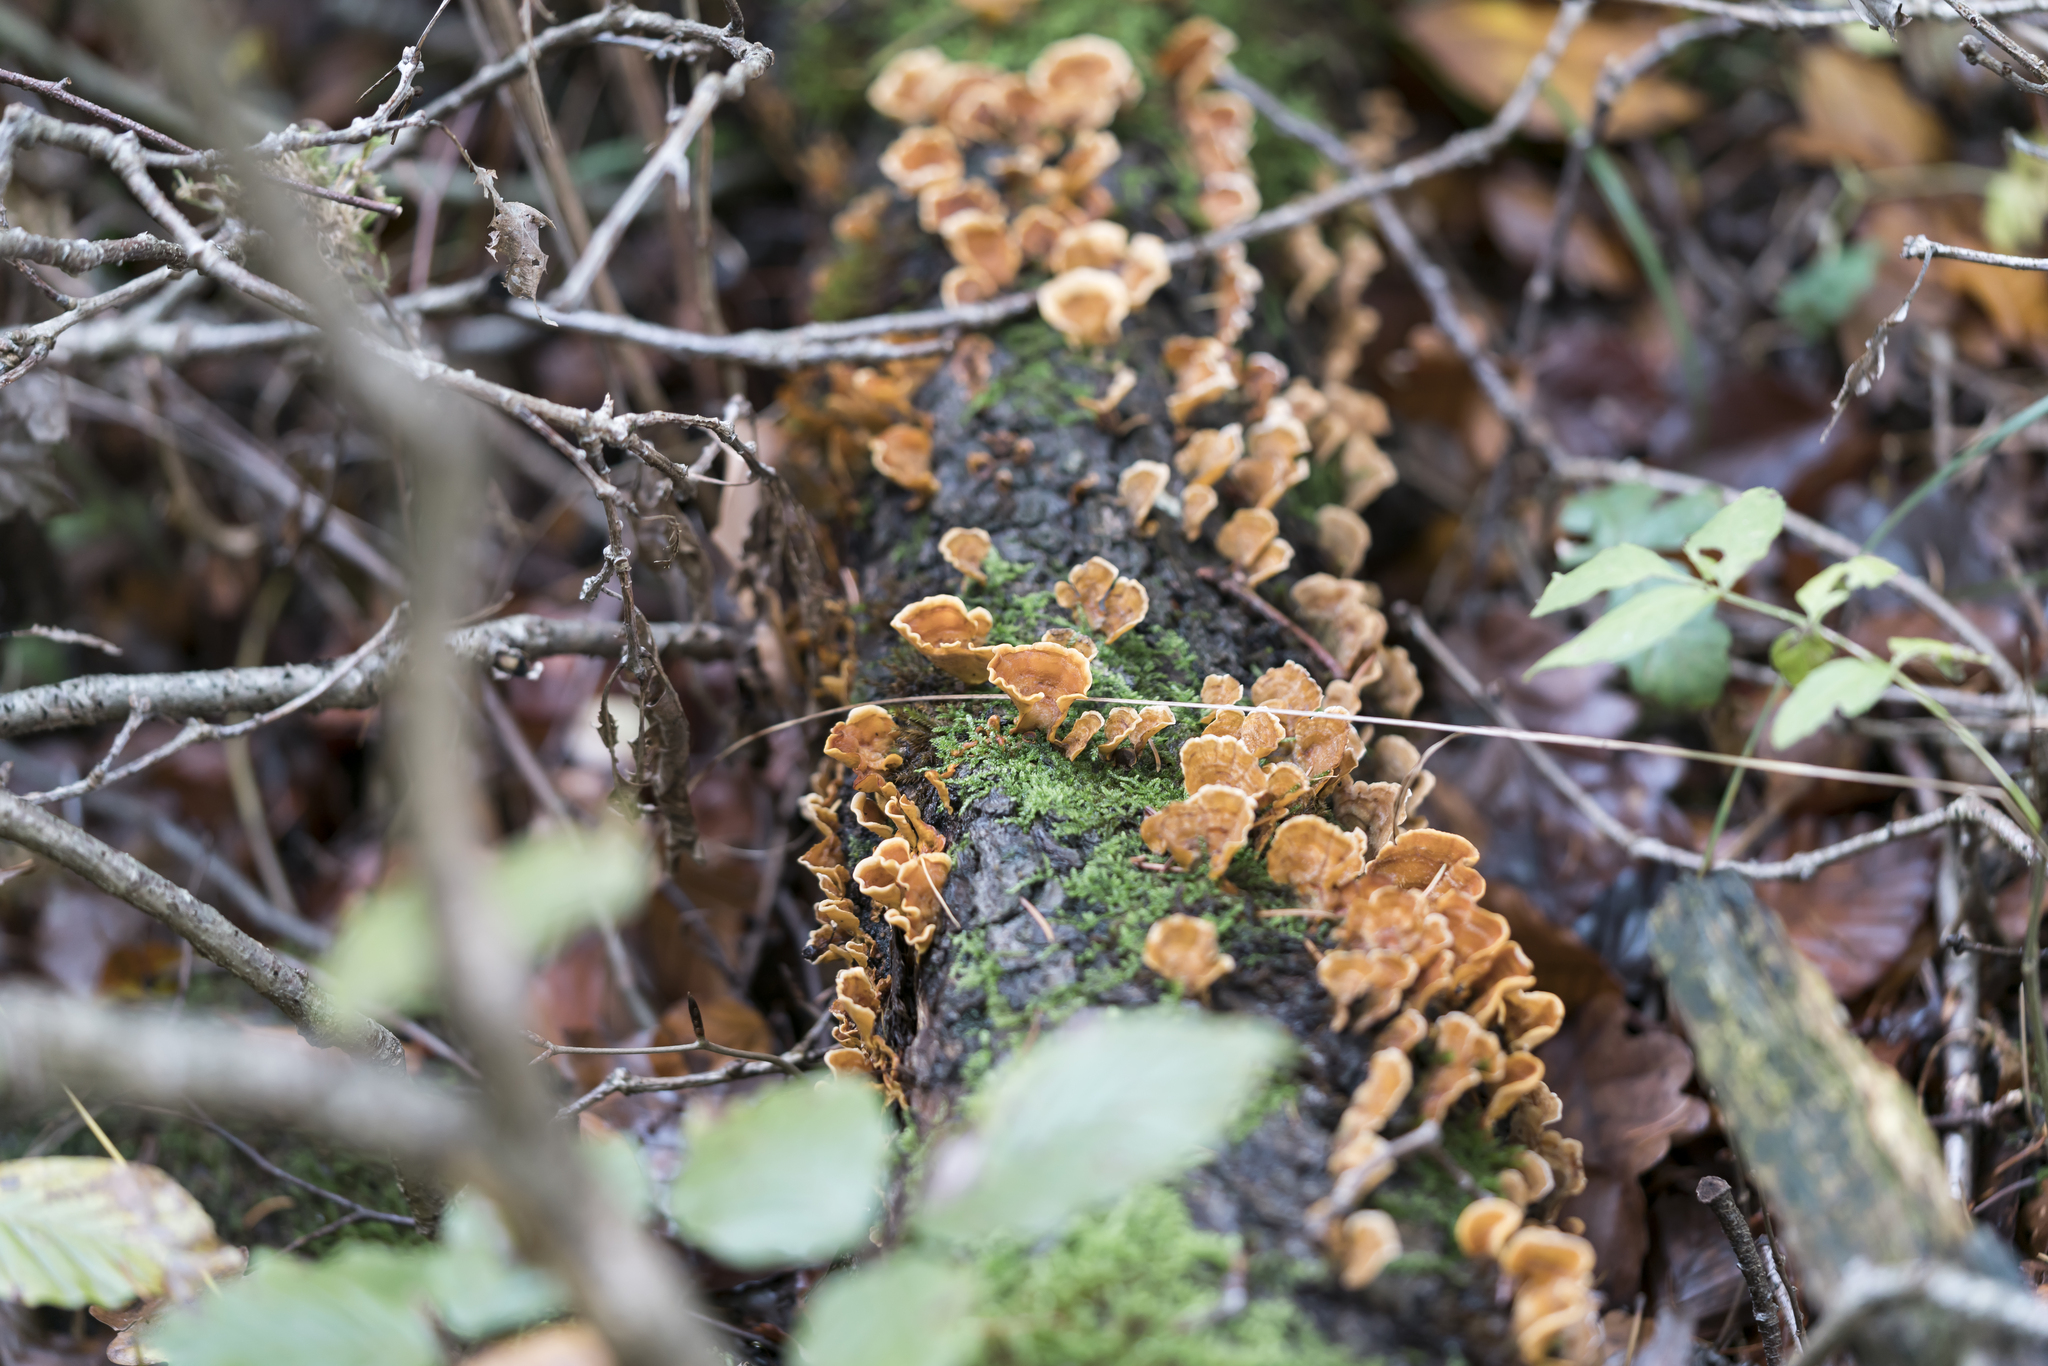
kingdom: Fungi
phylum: Basidiomycota
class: Agaricomycetes
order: Russulales
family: Stereaceae
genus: Stereum
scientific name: Stereum hirsutum
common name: Hairy curtain crust
